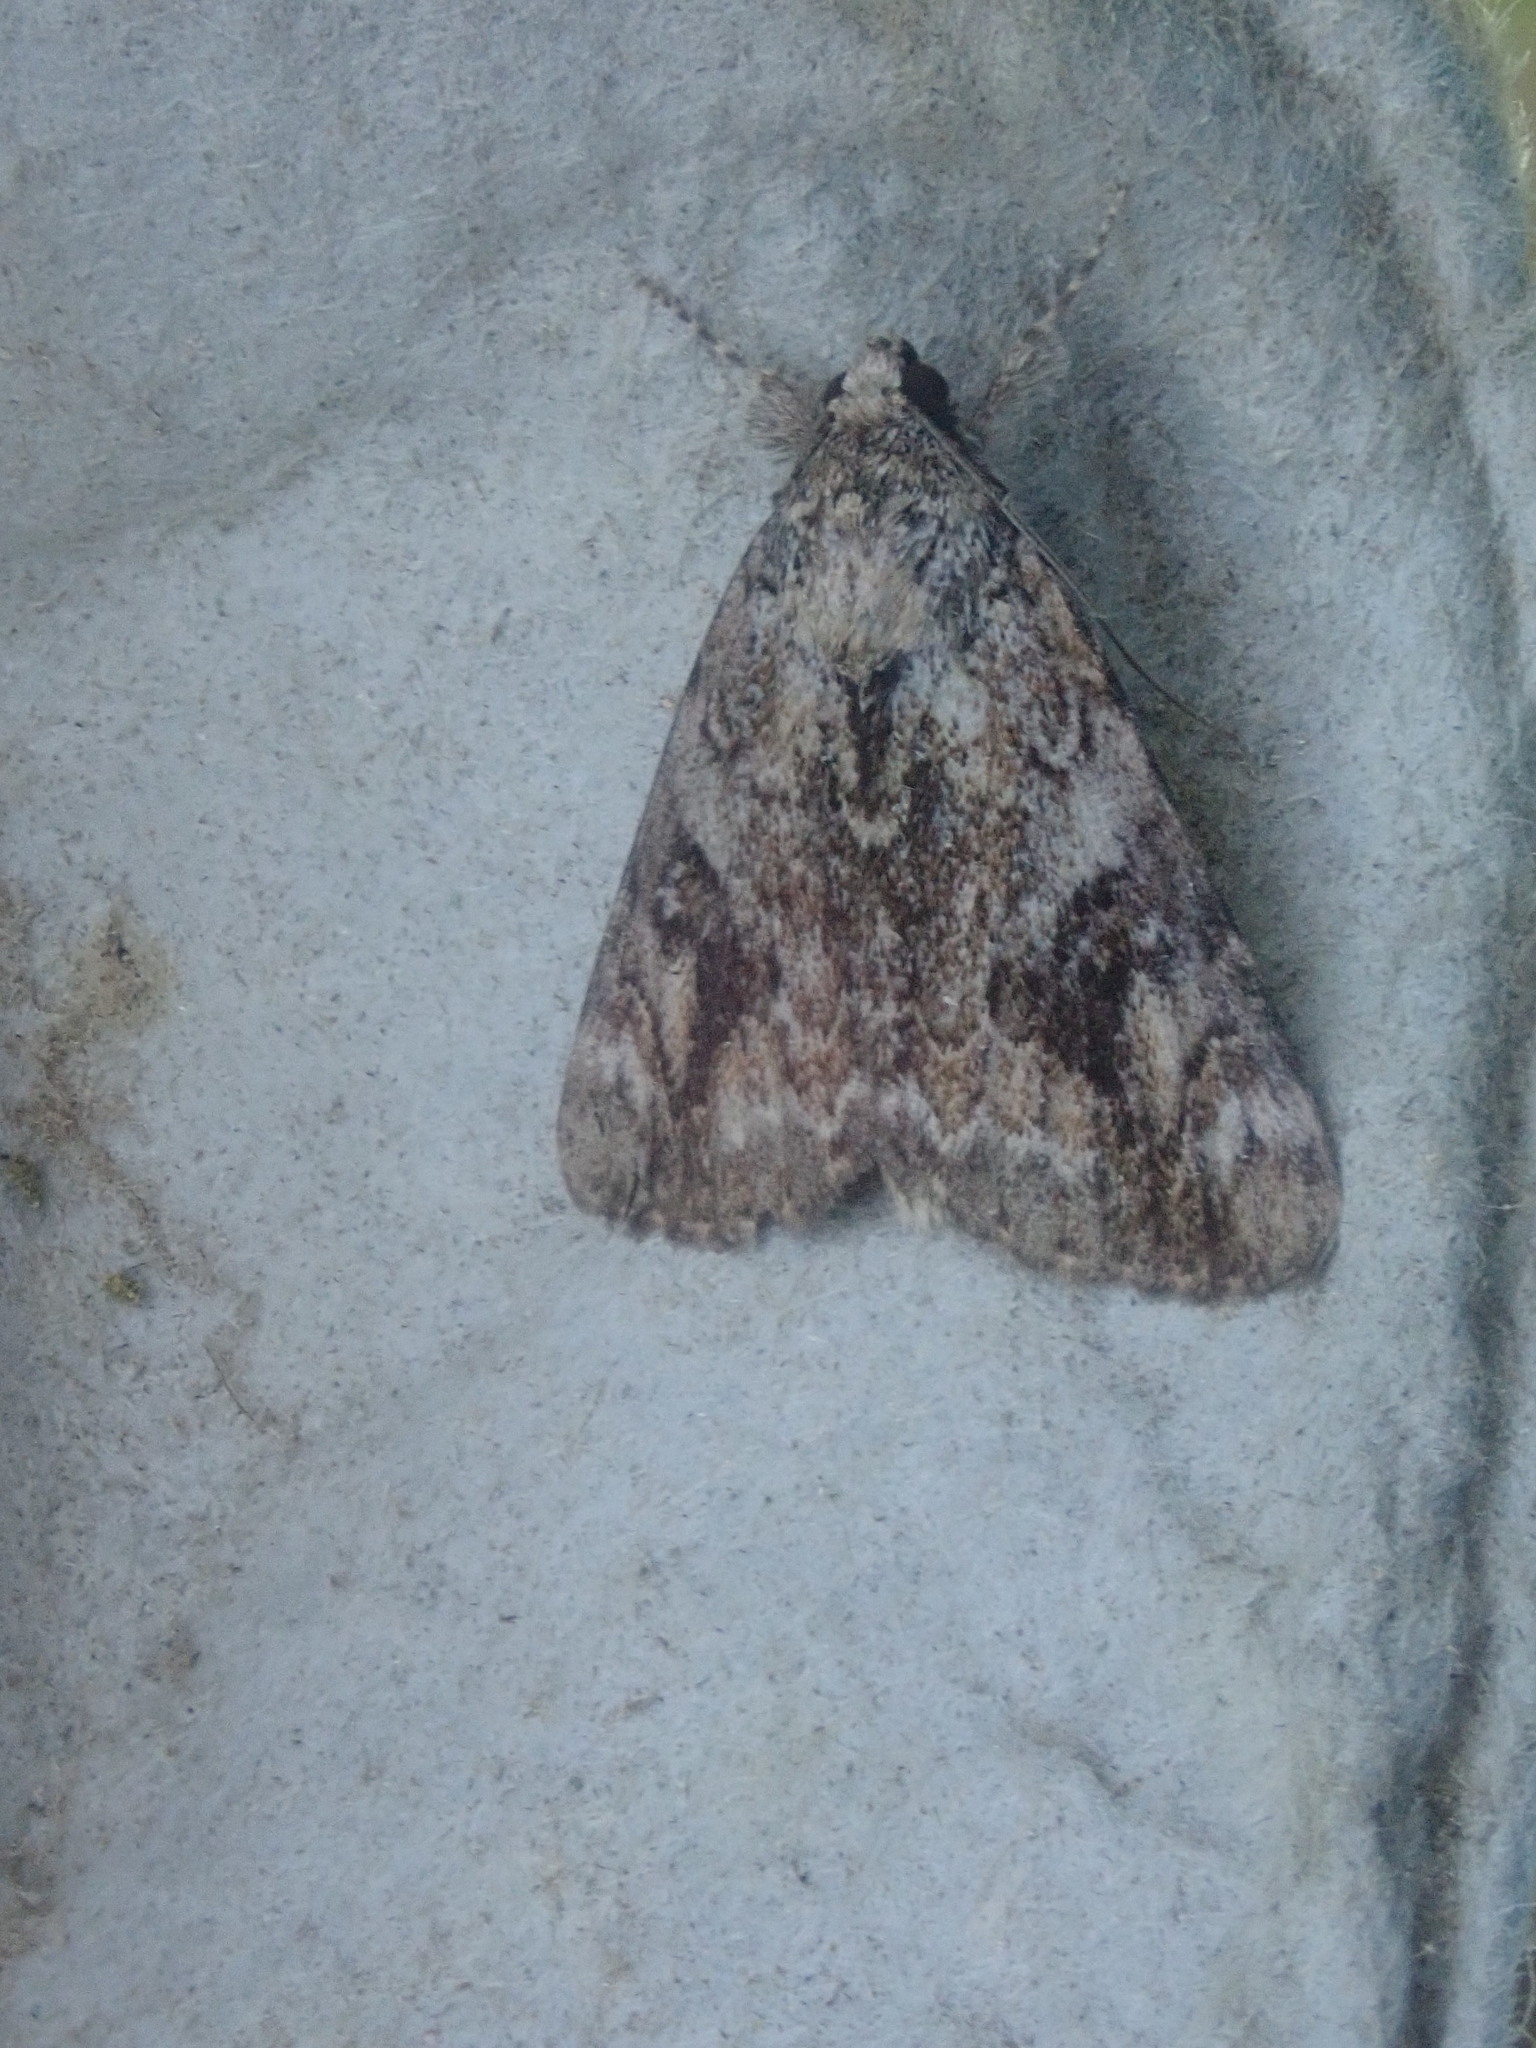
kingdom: Animalia
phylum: Arthropoda
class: Insecta
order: Lepidoptera
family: Erebidae
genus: Catocala
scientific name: Catocala micronympha
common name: Little nymph underwing
